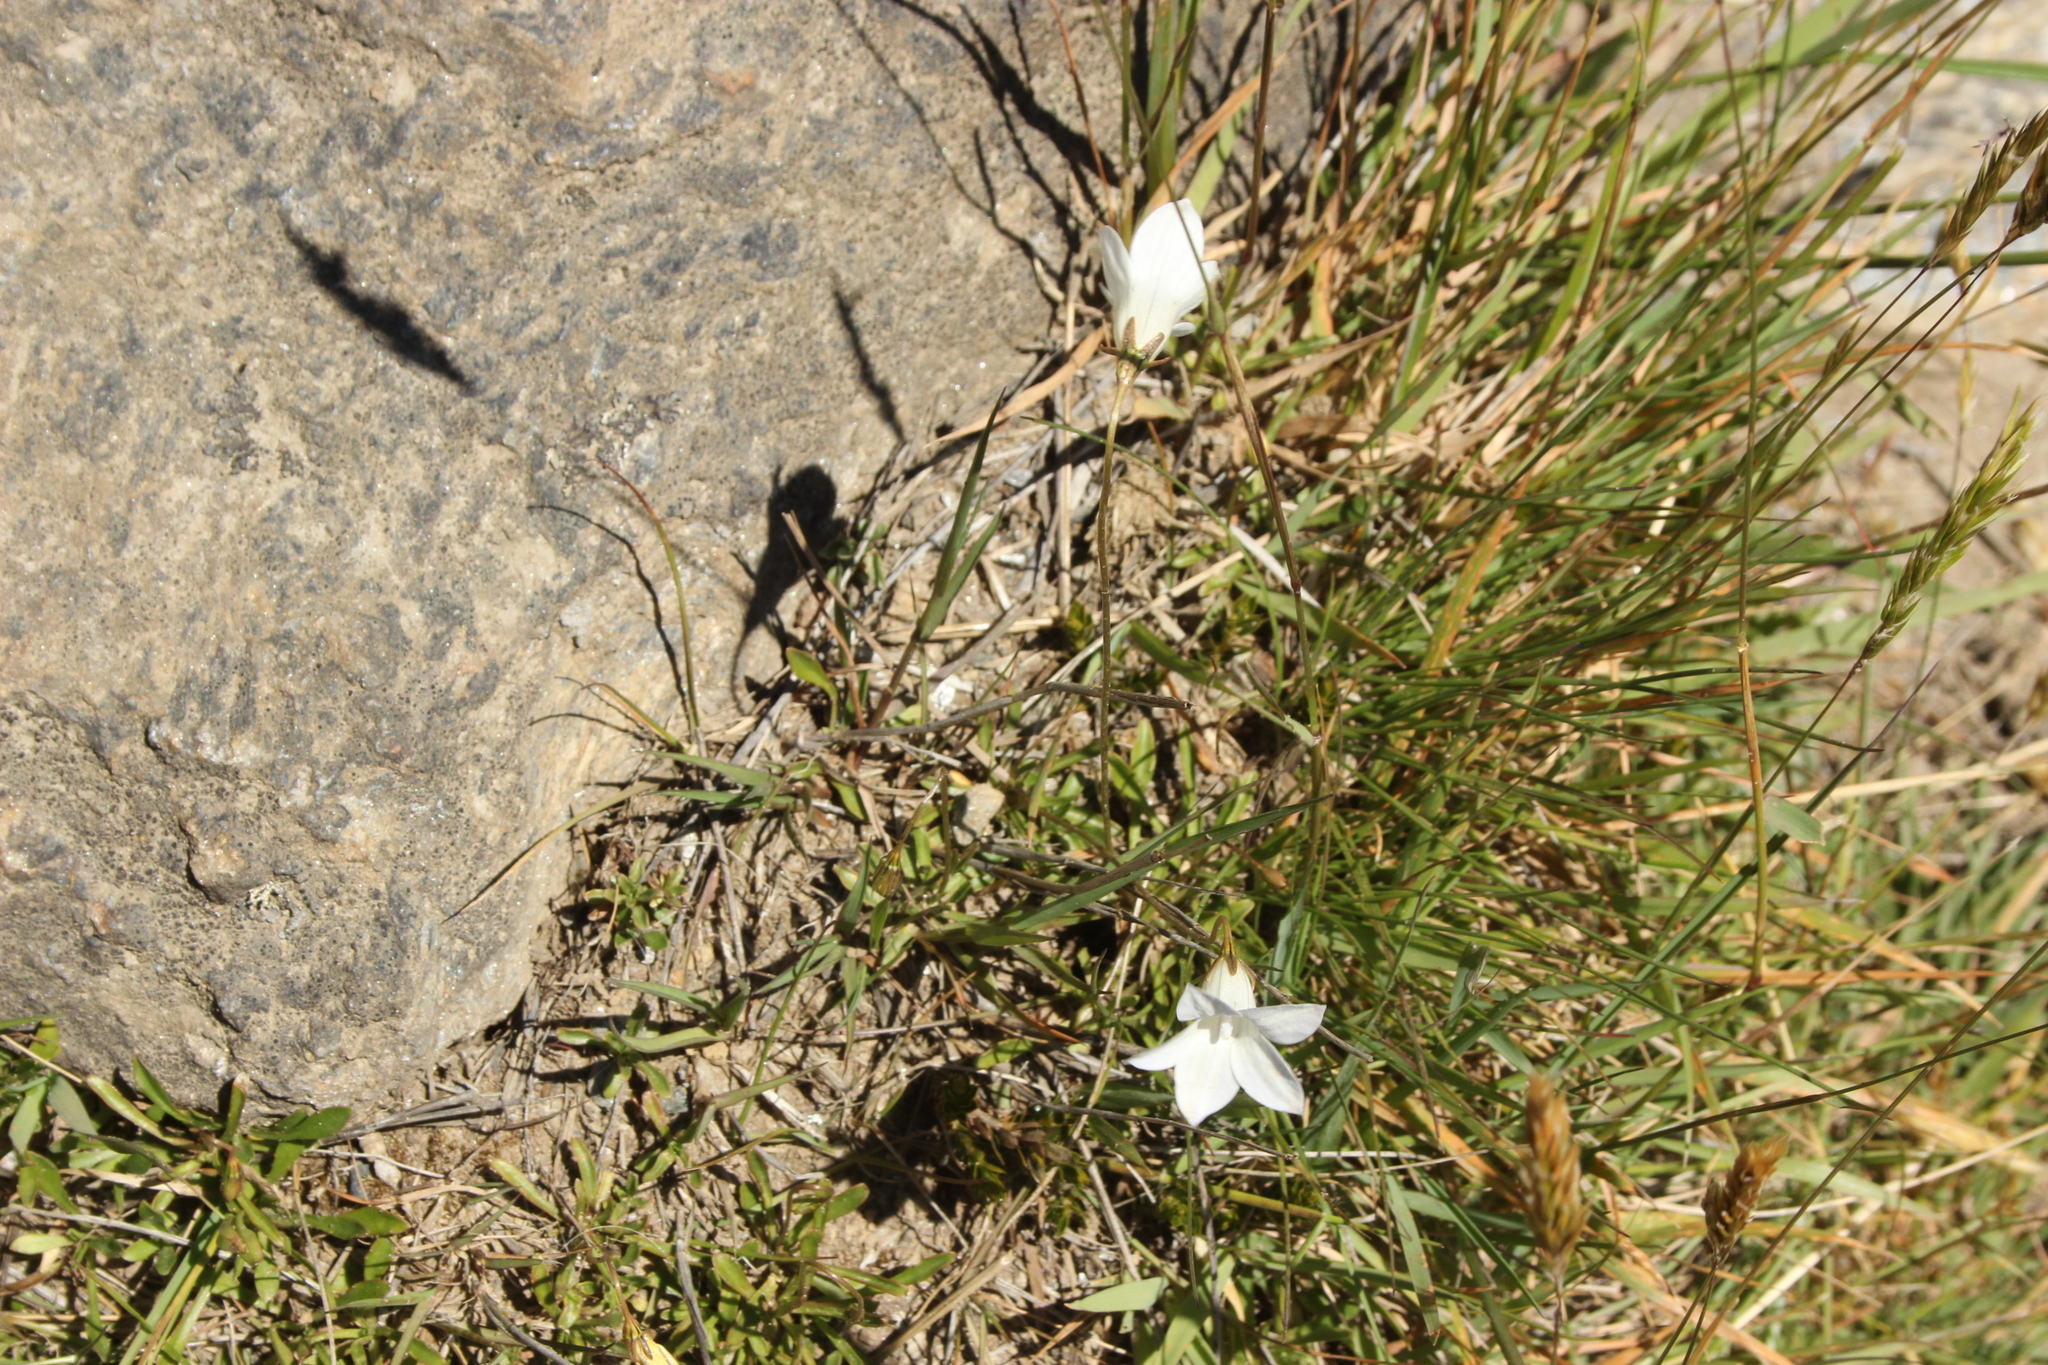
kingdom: Plantae
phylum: Tracheophyta
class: Magnoliopsida
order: Asterales
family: Campanulaceae
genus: Wahlenbergia
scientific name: Wahlenbergia albomarginata
